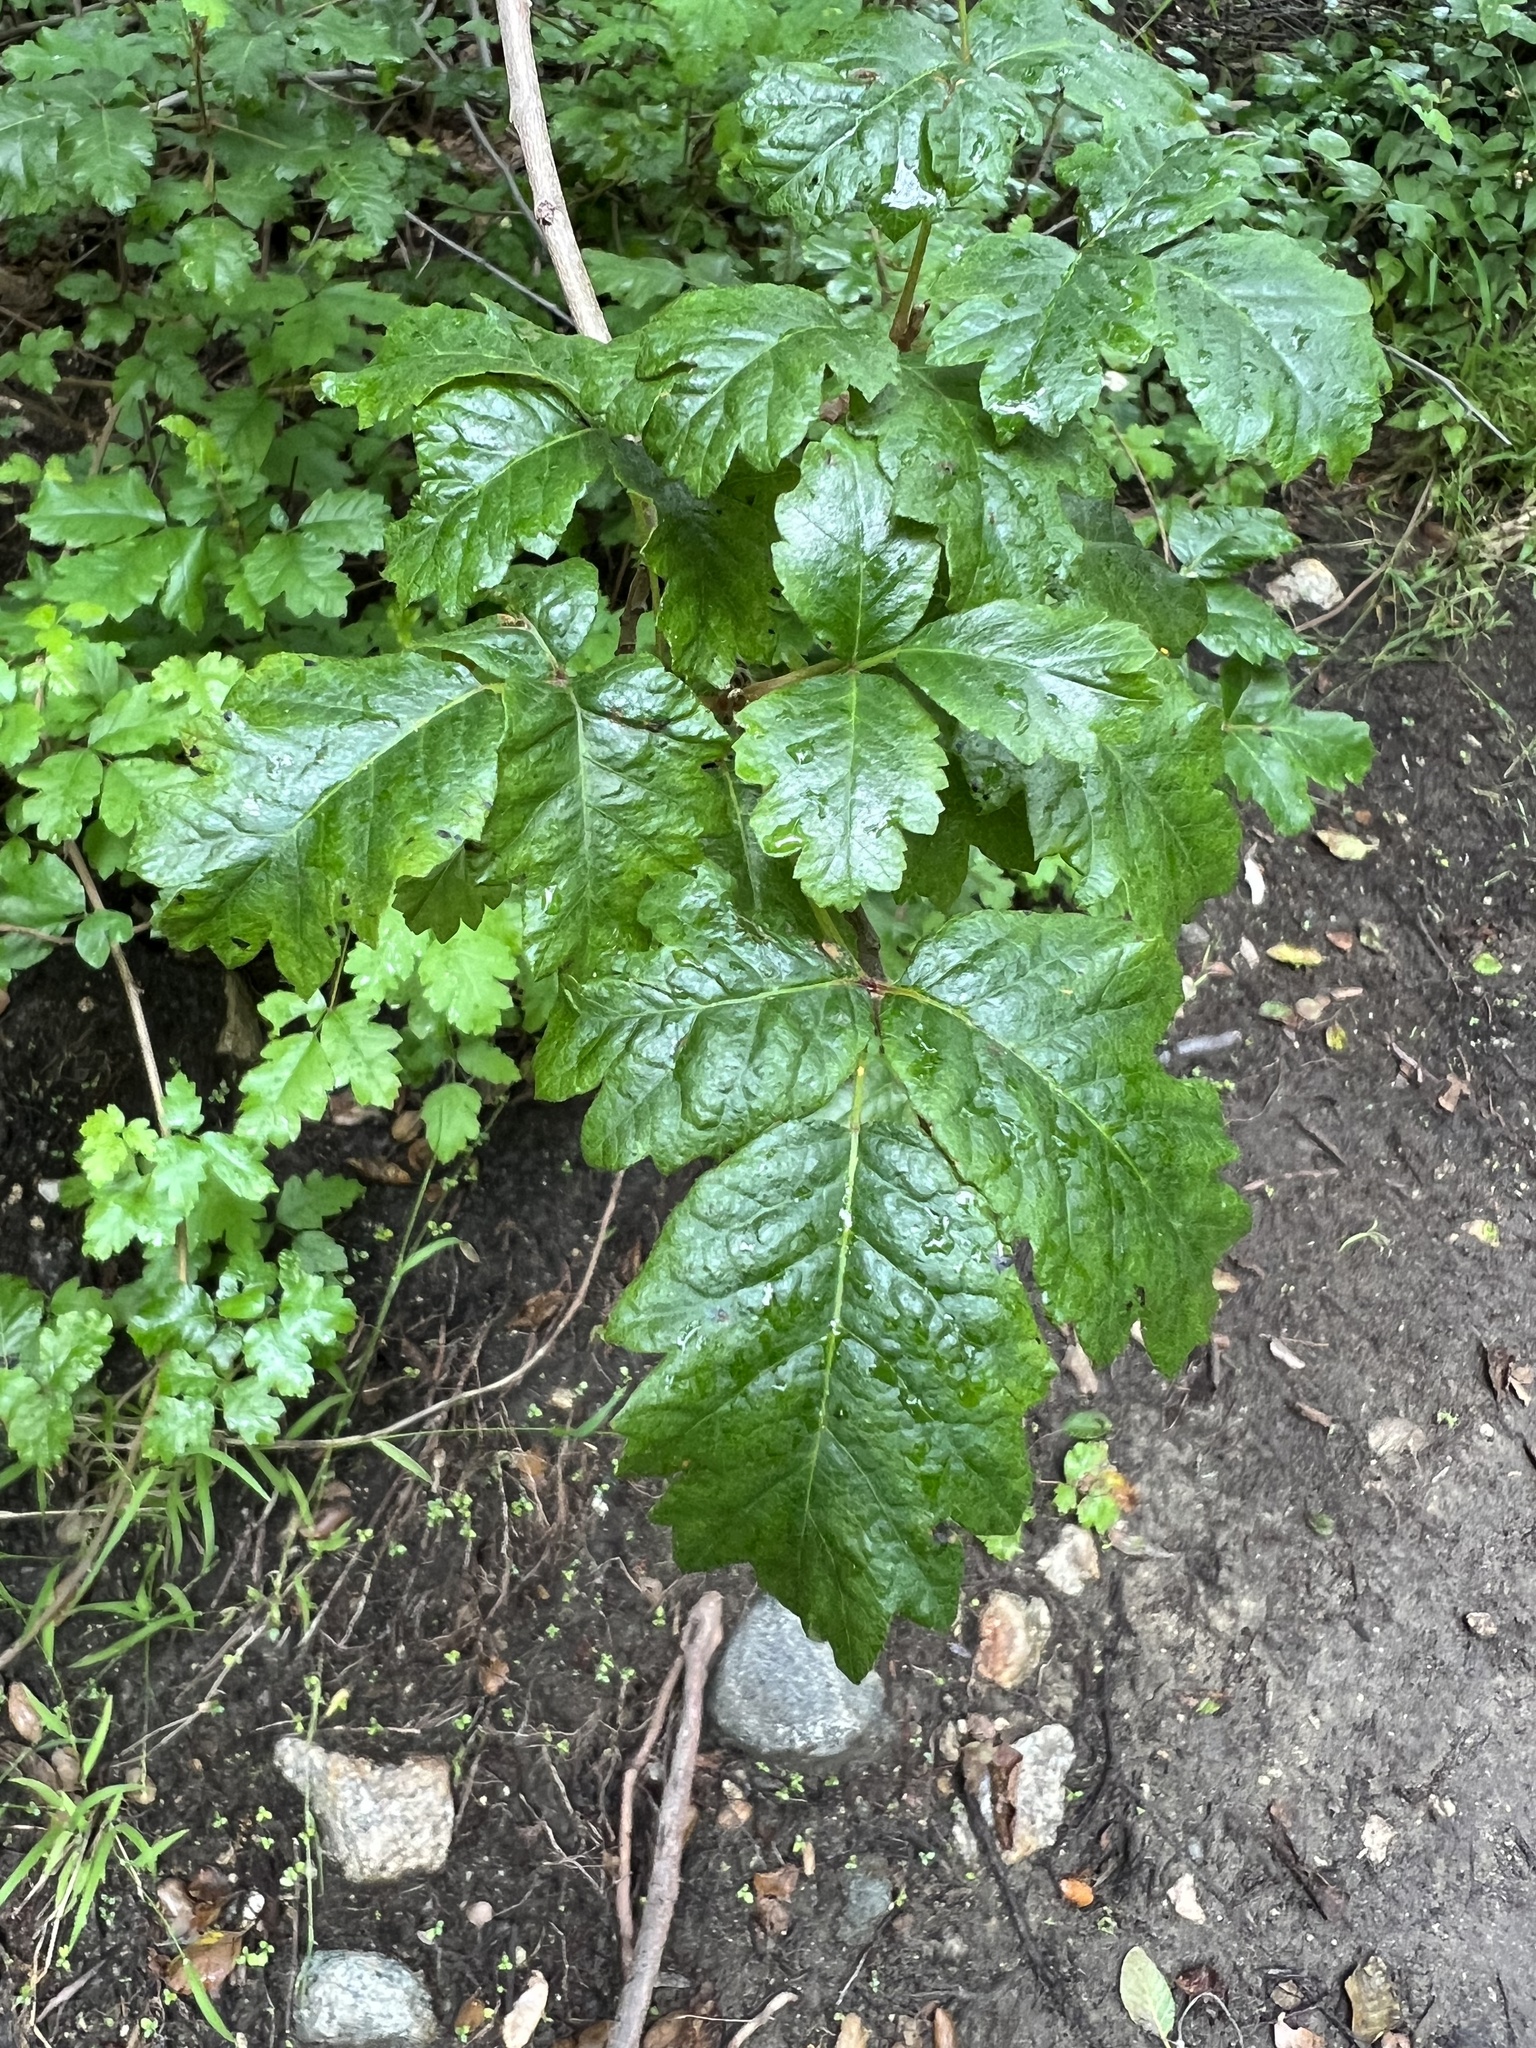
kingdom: Plantae
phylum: Tracheophyta
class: Magnoliopsida
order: Sapindales
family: Anacardiaceae
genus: Toxicodendron
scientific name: Toxicodendron diversilobum
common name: Pacific poison-oak
